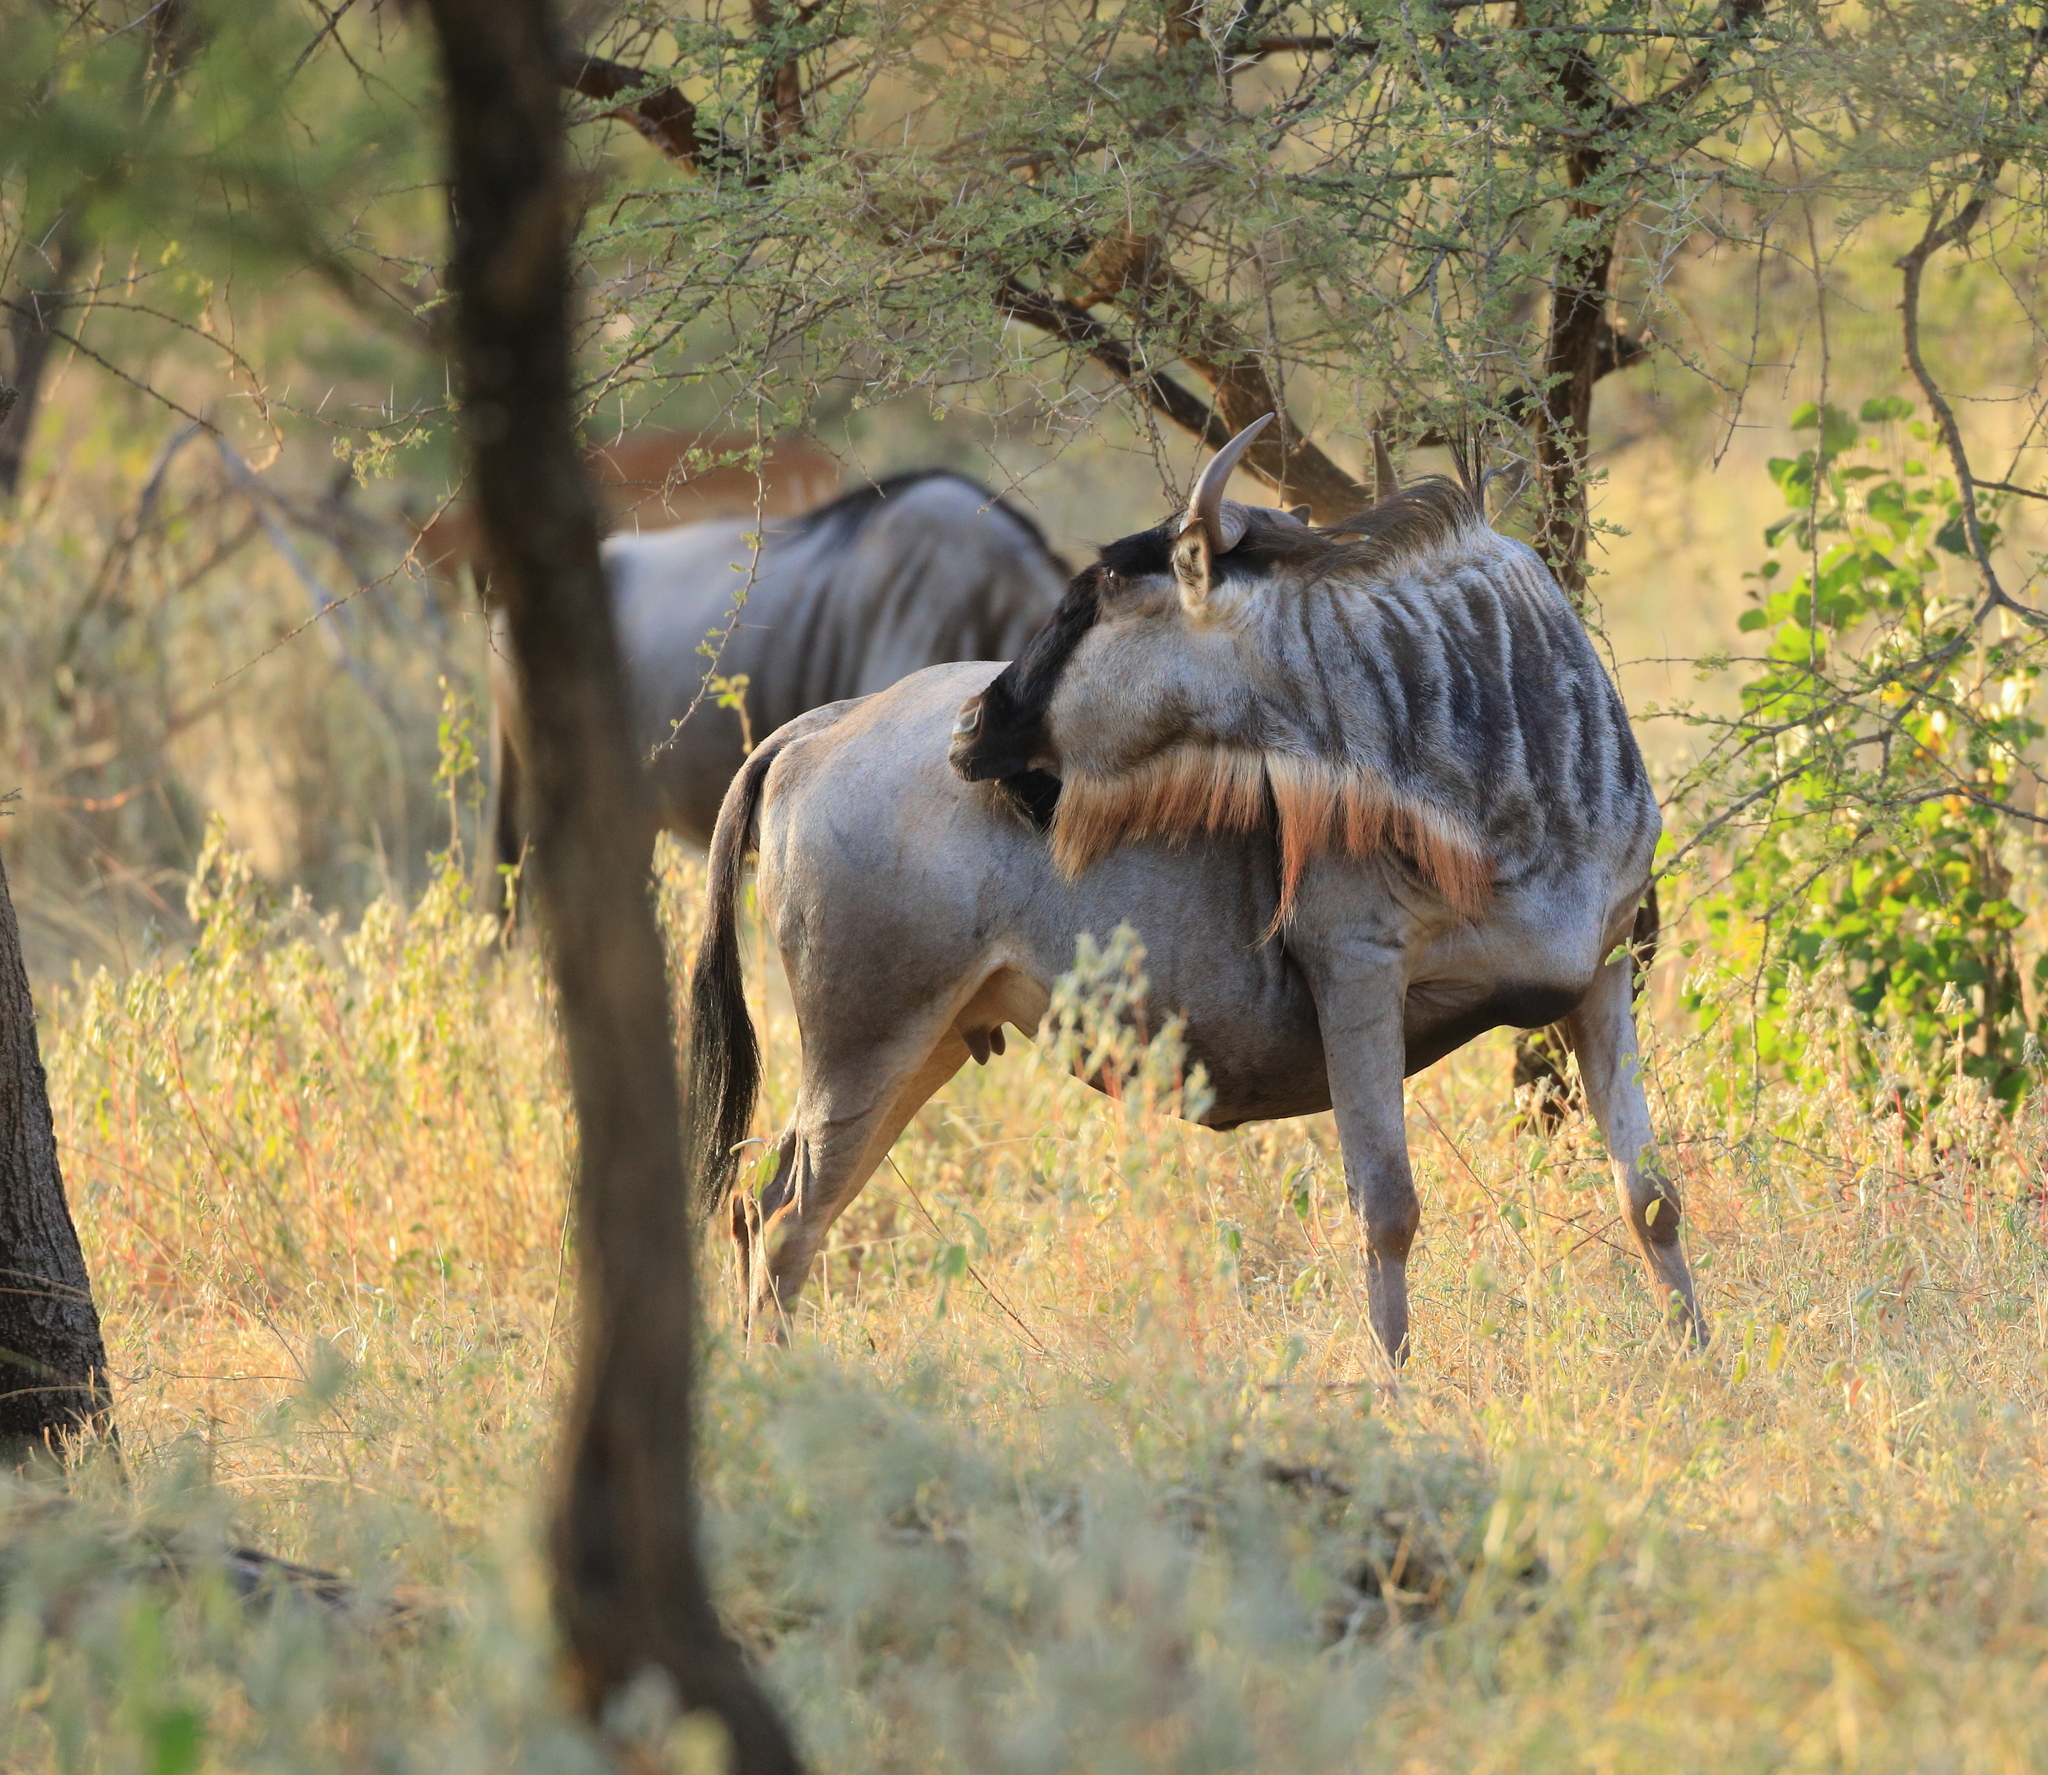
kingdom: Animalia
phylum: Chordata
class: Mammalia
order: Artiodactyla
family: Bovidae
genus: Connochaetes
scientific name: Connochaetes taurinus
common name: Blue wildebeest
